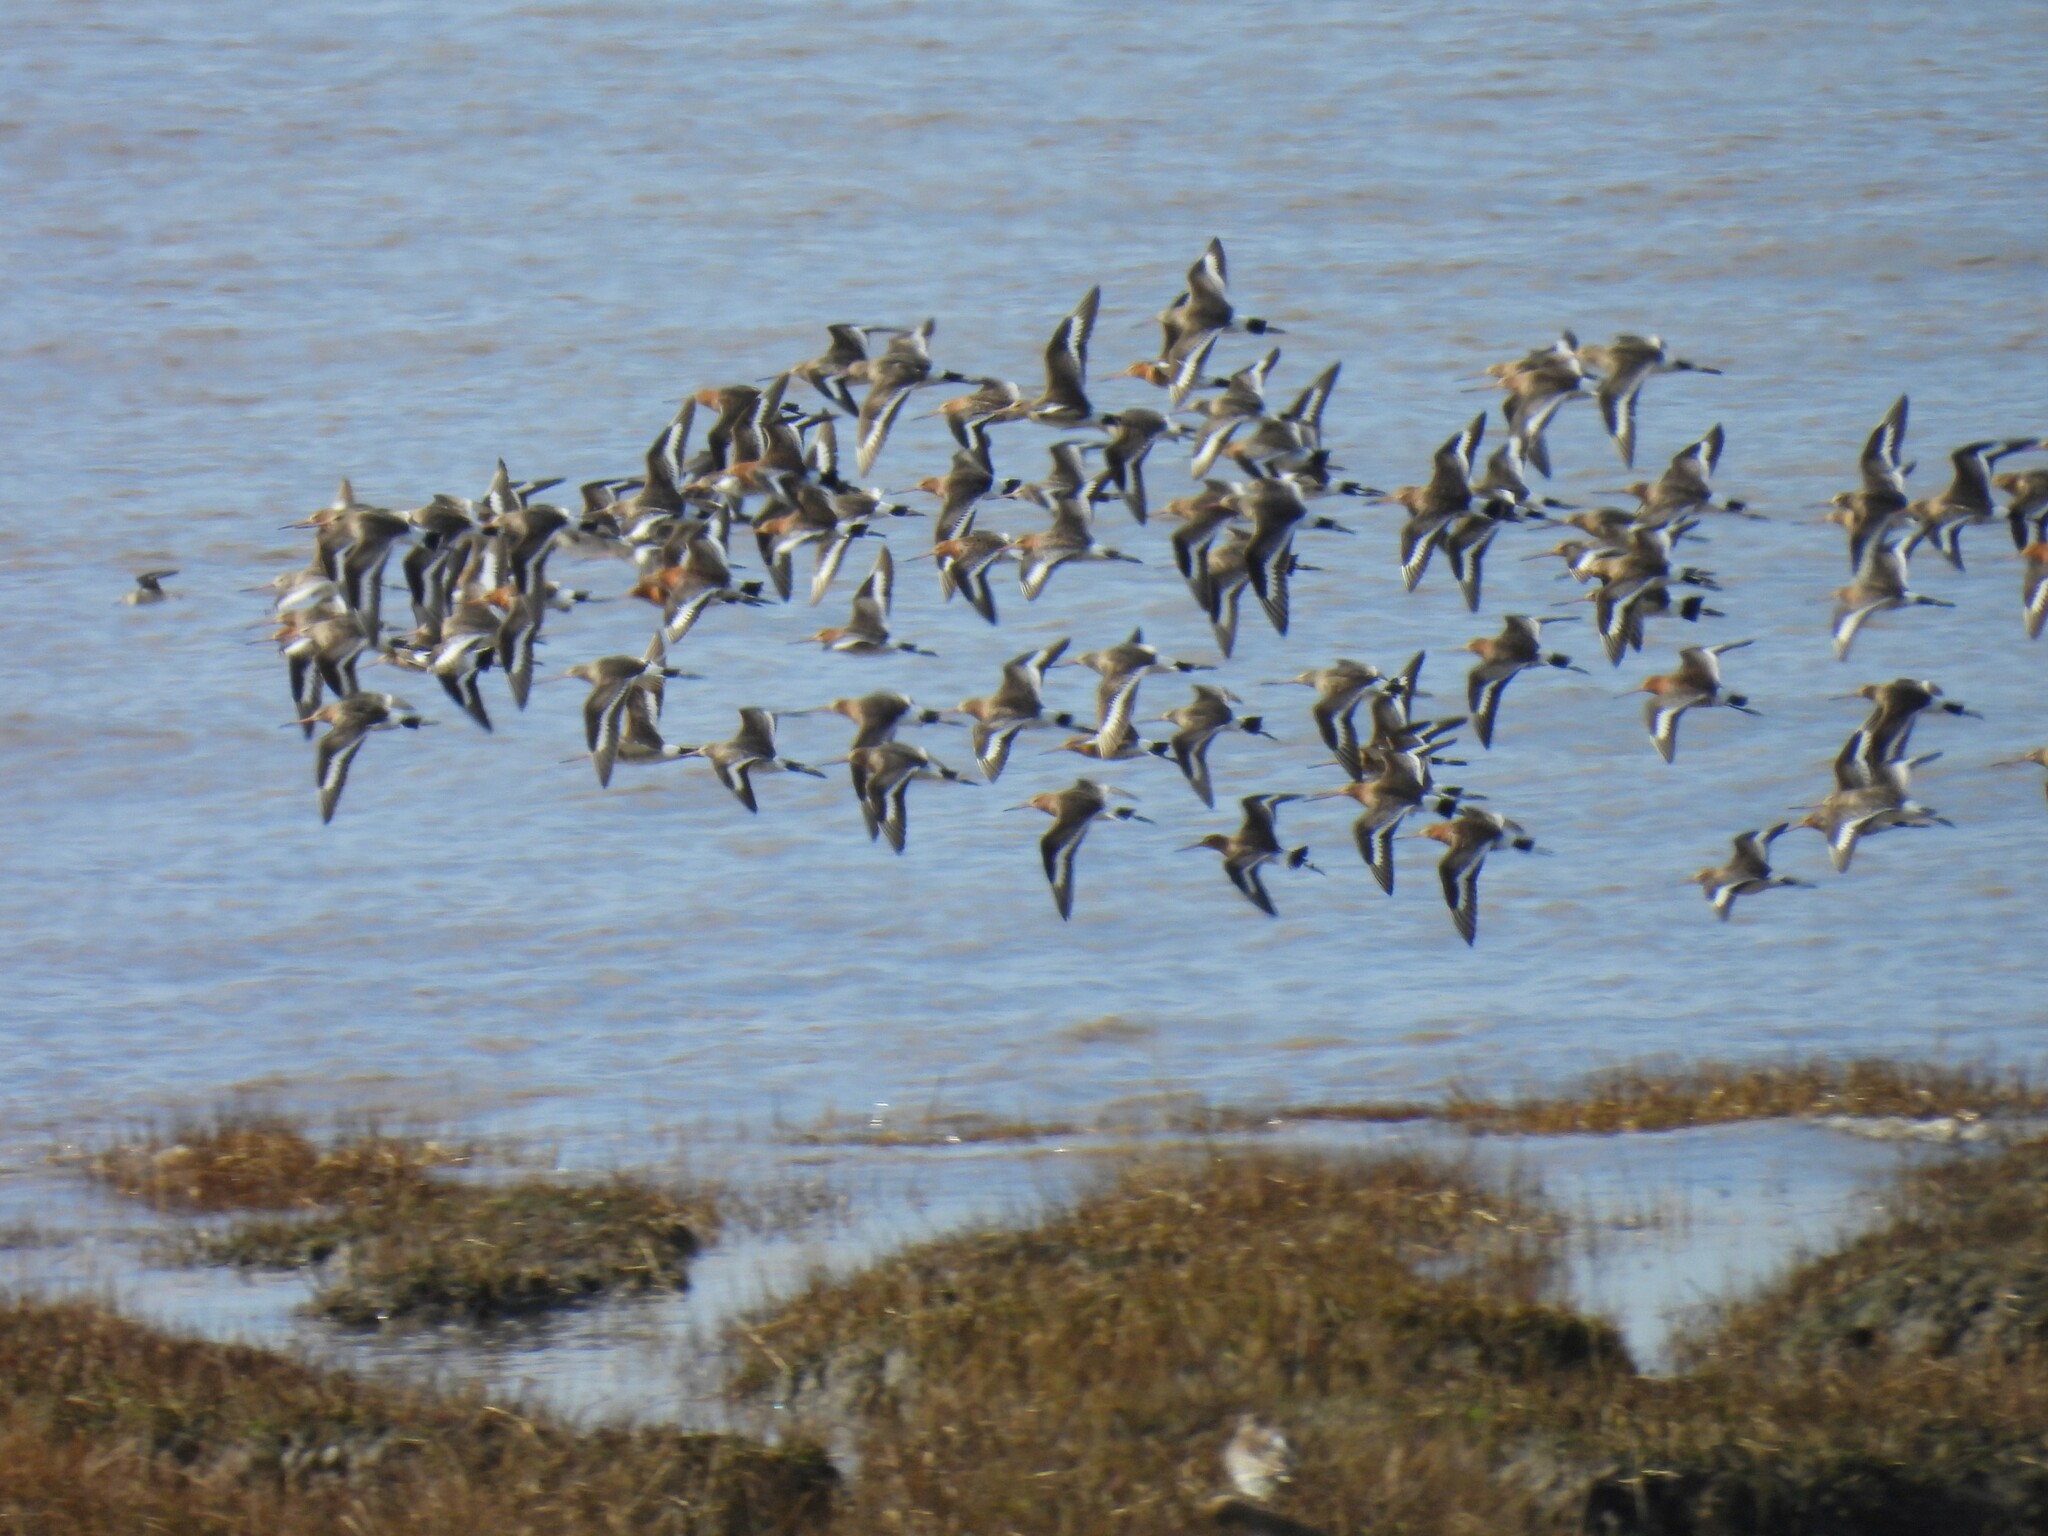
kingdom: Animalia
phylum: Chordata
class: Aves
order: Charadriiformes
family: Scolopacidae
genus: Limosa
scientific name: Limosa limosa
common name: Black-tailed godwit
